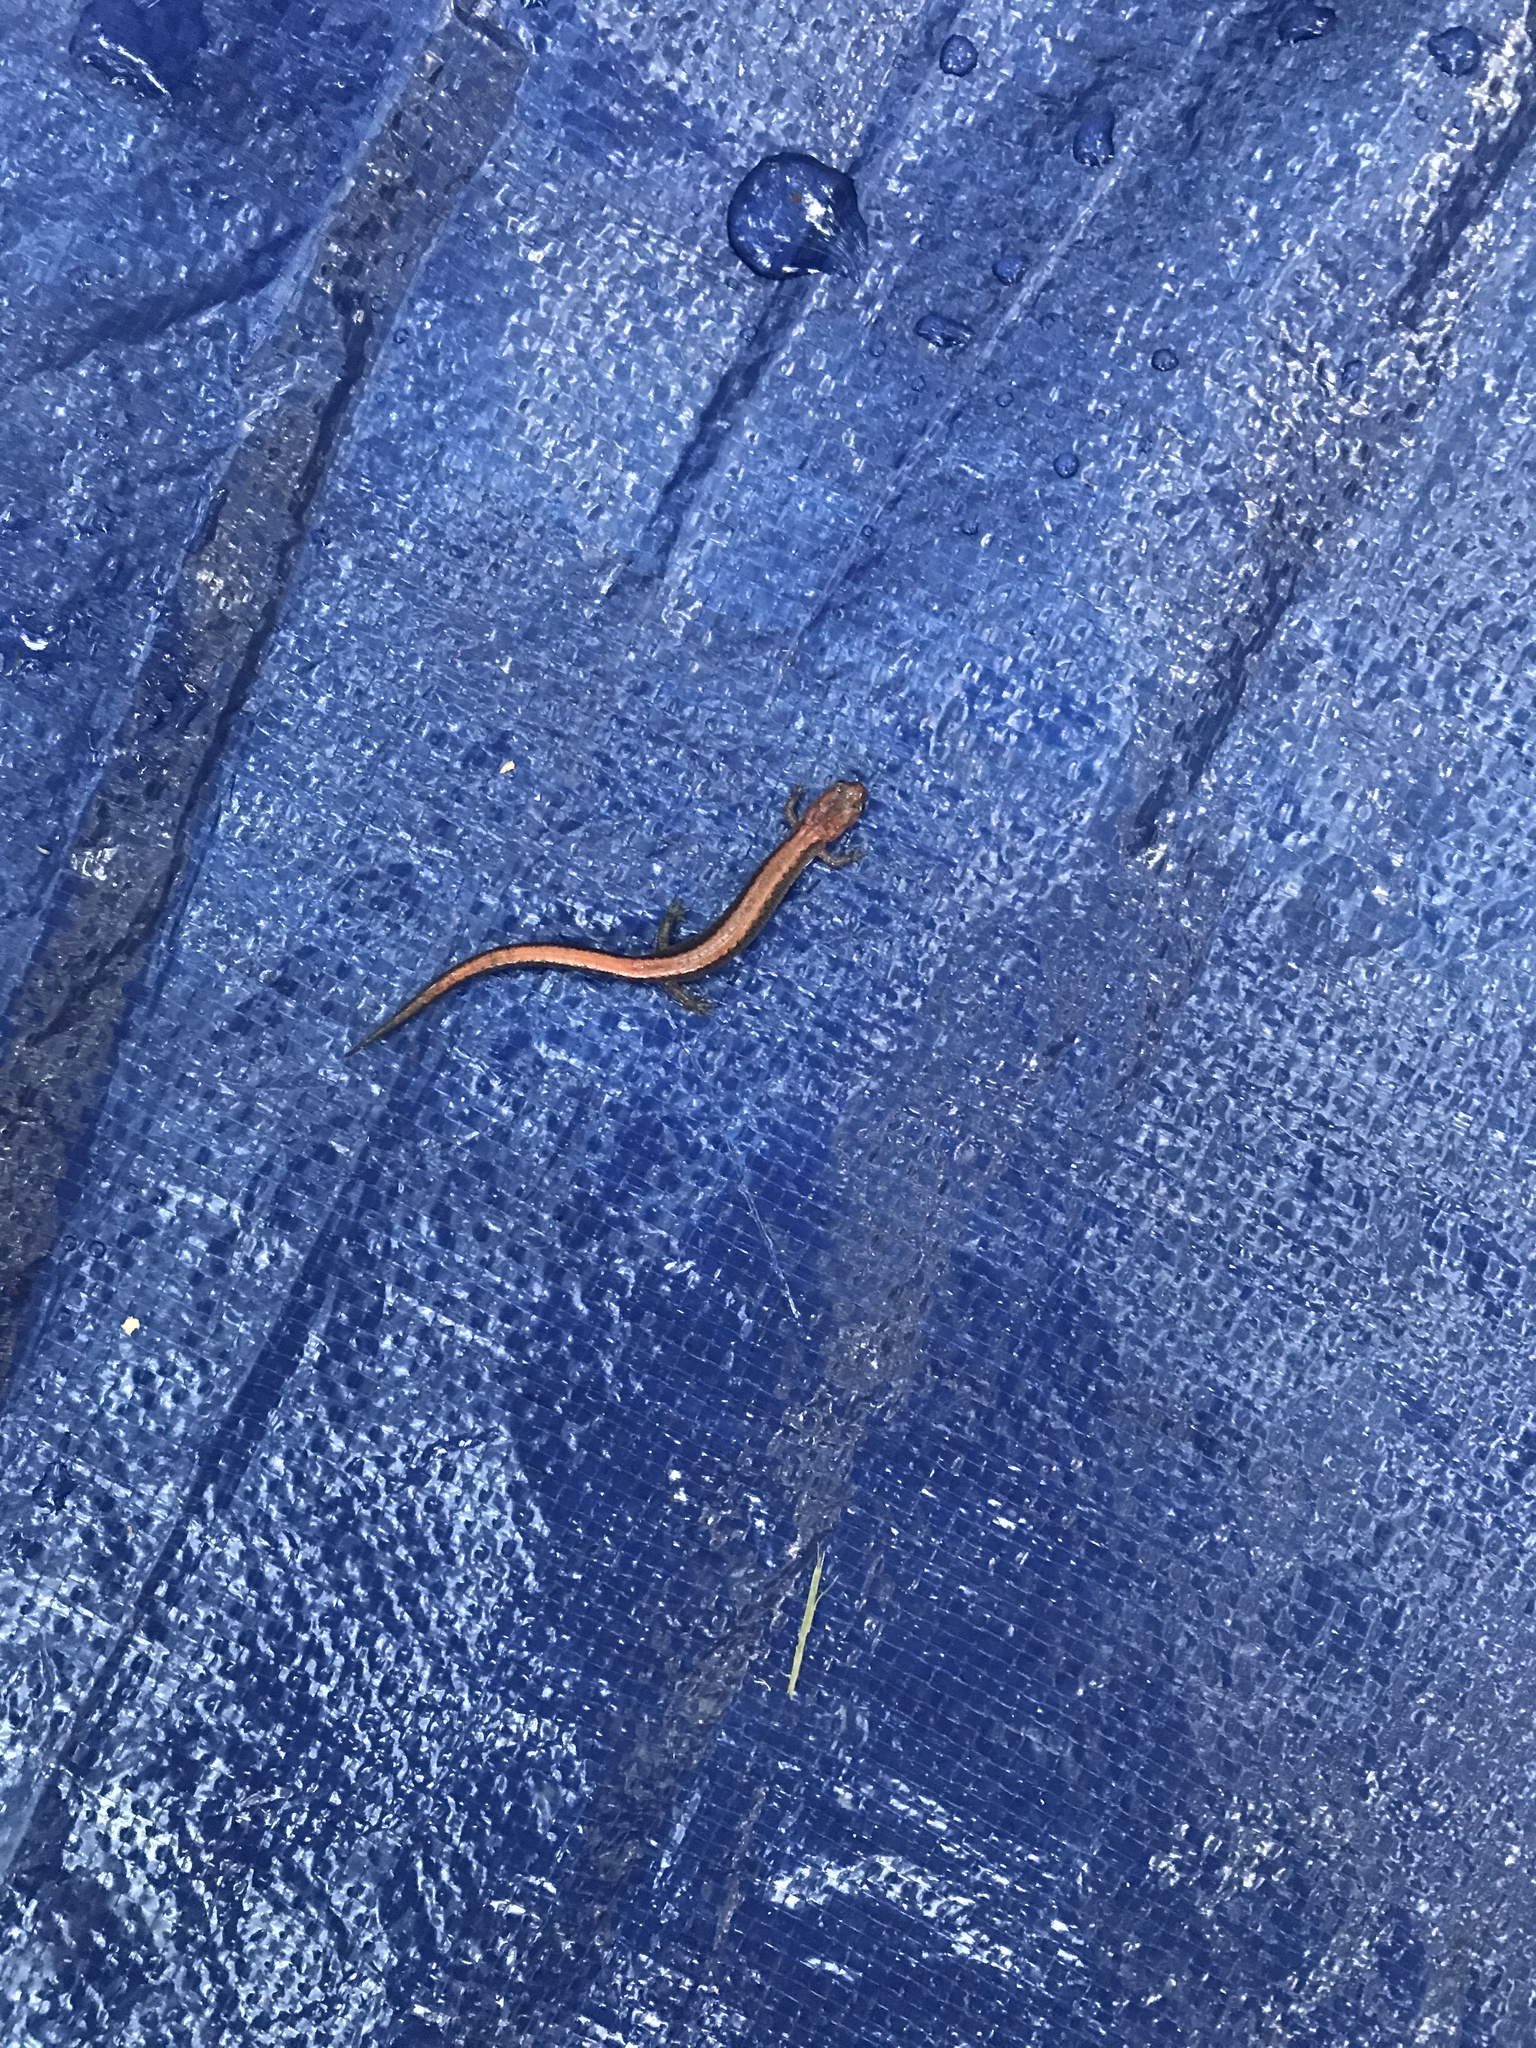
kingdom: Animalia
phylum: Chordata
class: Amphibia
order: Caudata
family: Plethodontidae
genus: Plethodon
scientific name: Plethodon cinereus
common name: Redback salamander
